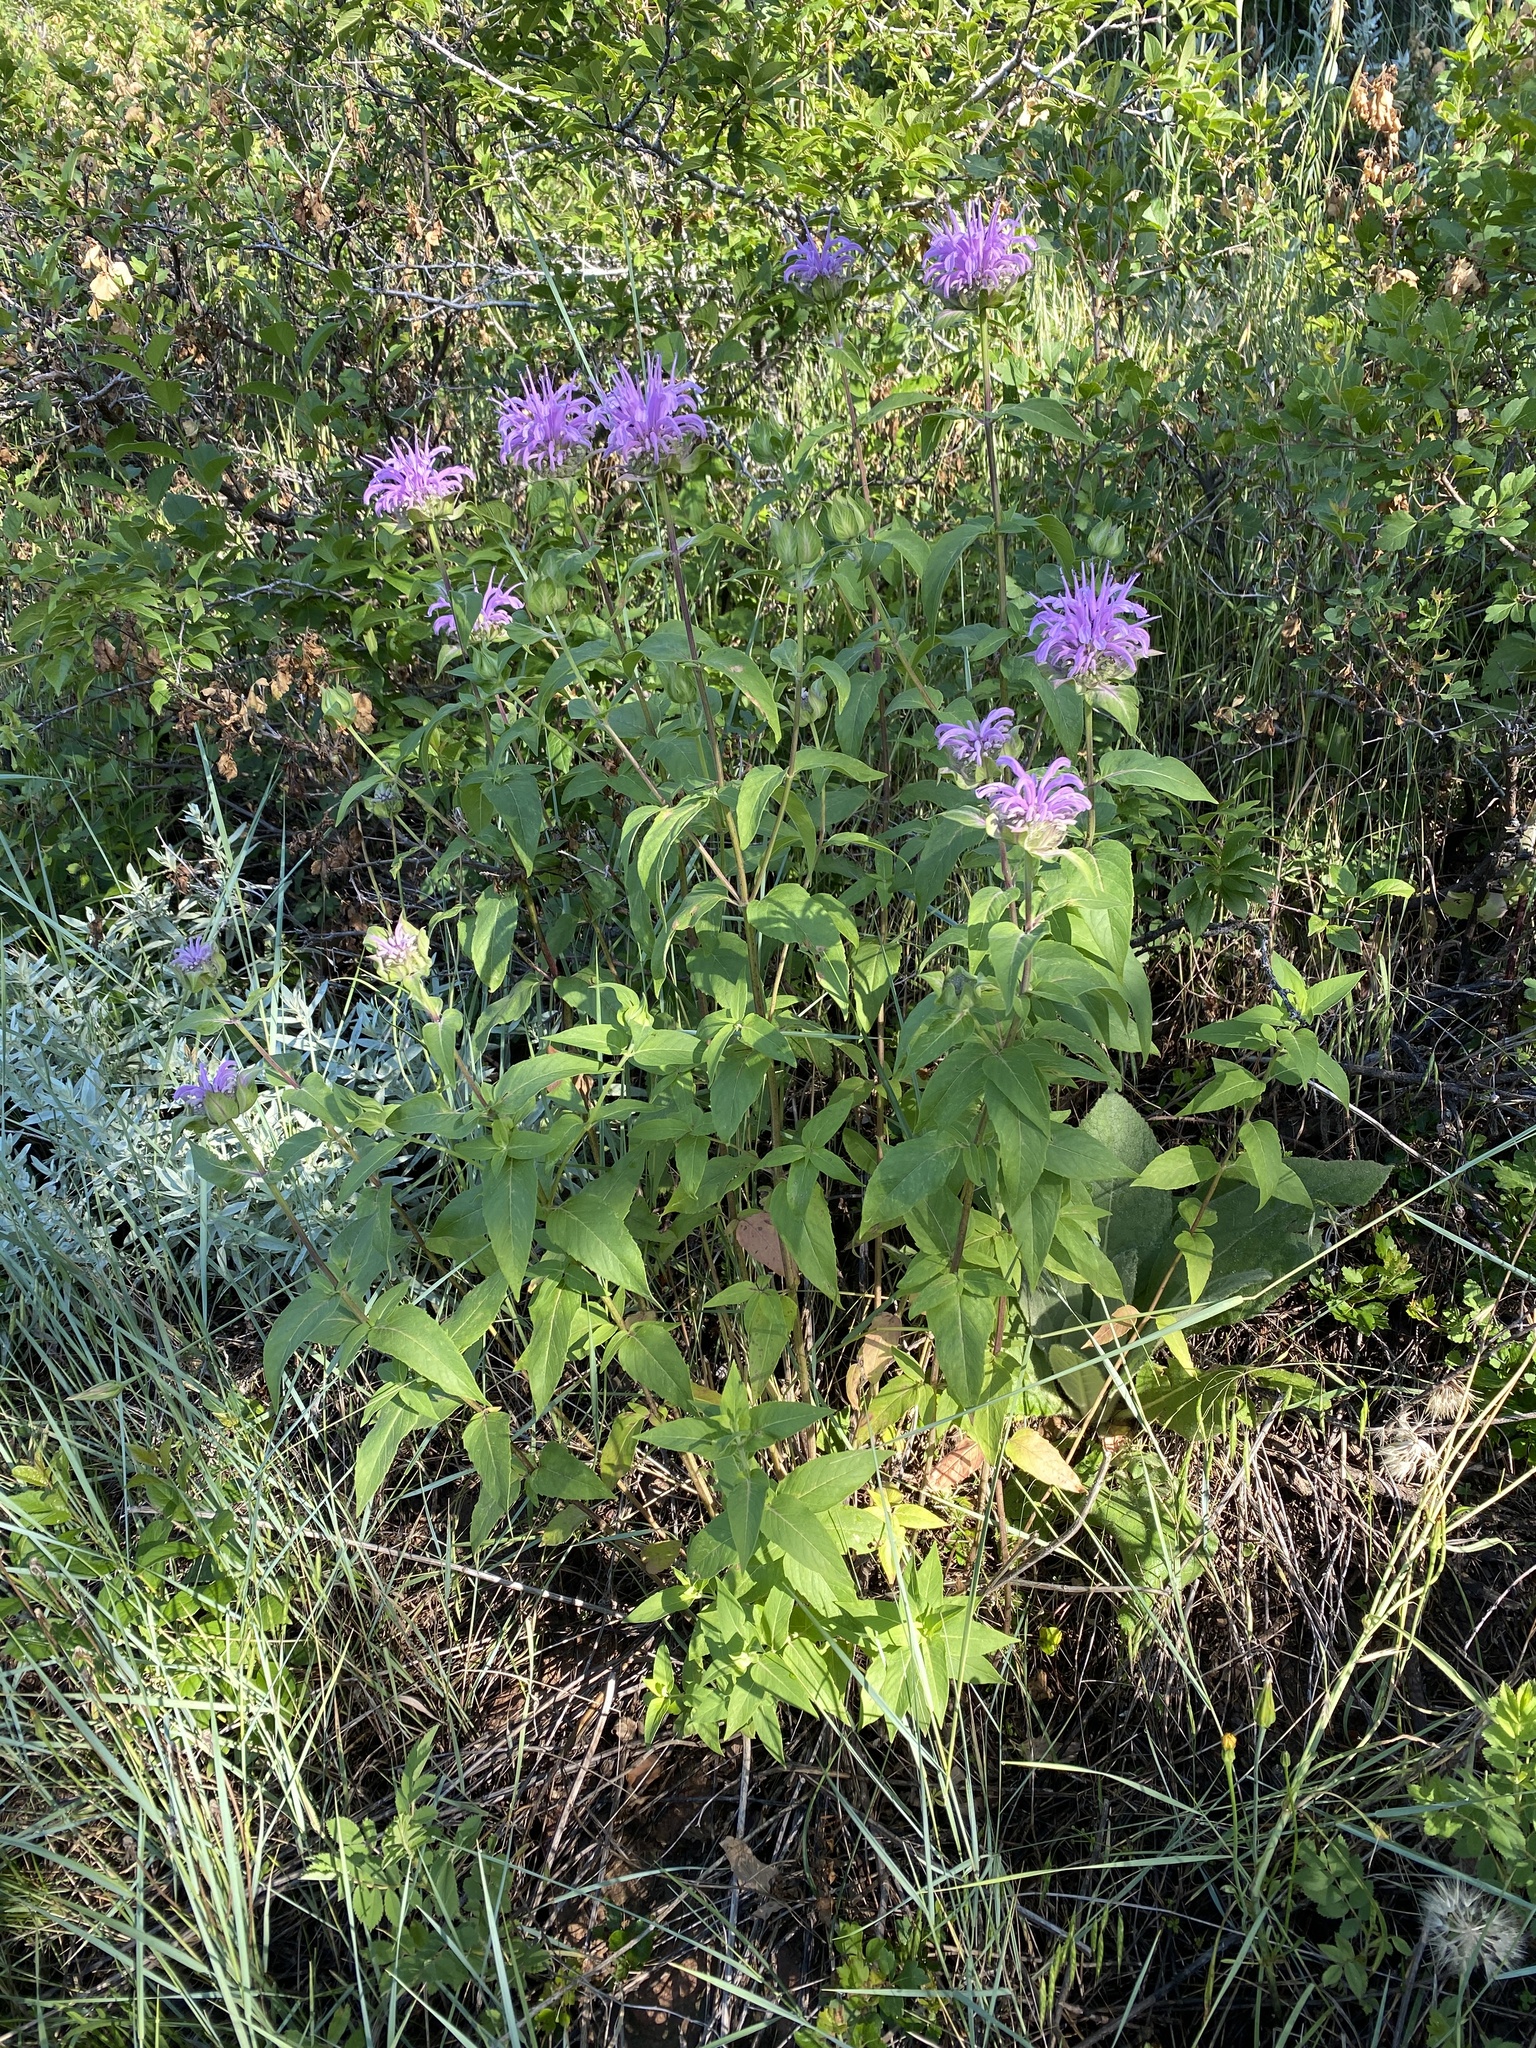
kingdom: Plantae
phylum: Tracheophyta
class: Magnoliopsida
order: Lamiales
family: Lamiaceae
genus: Monarda
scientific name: Monarda fistulosa
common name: Purple beebalm
